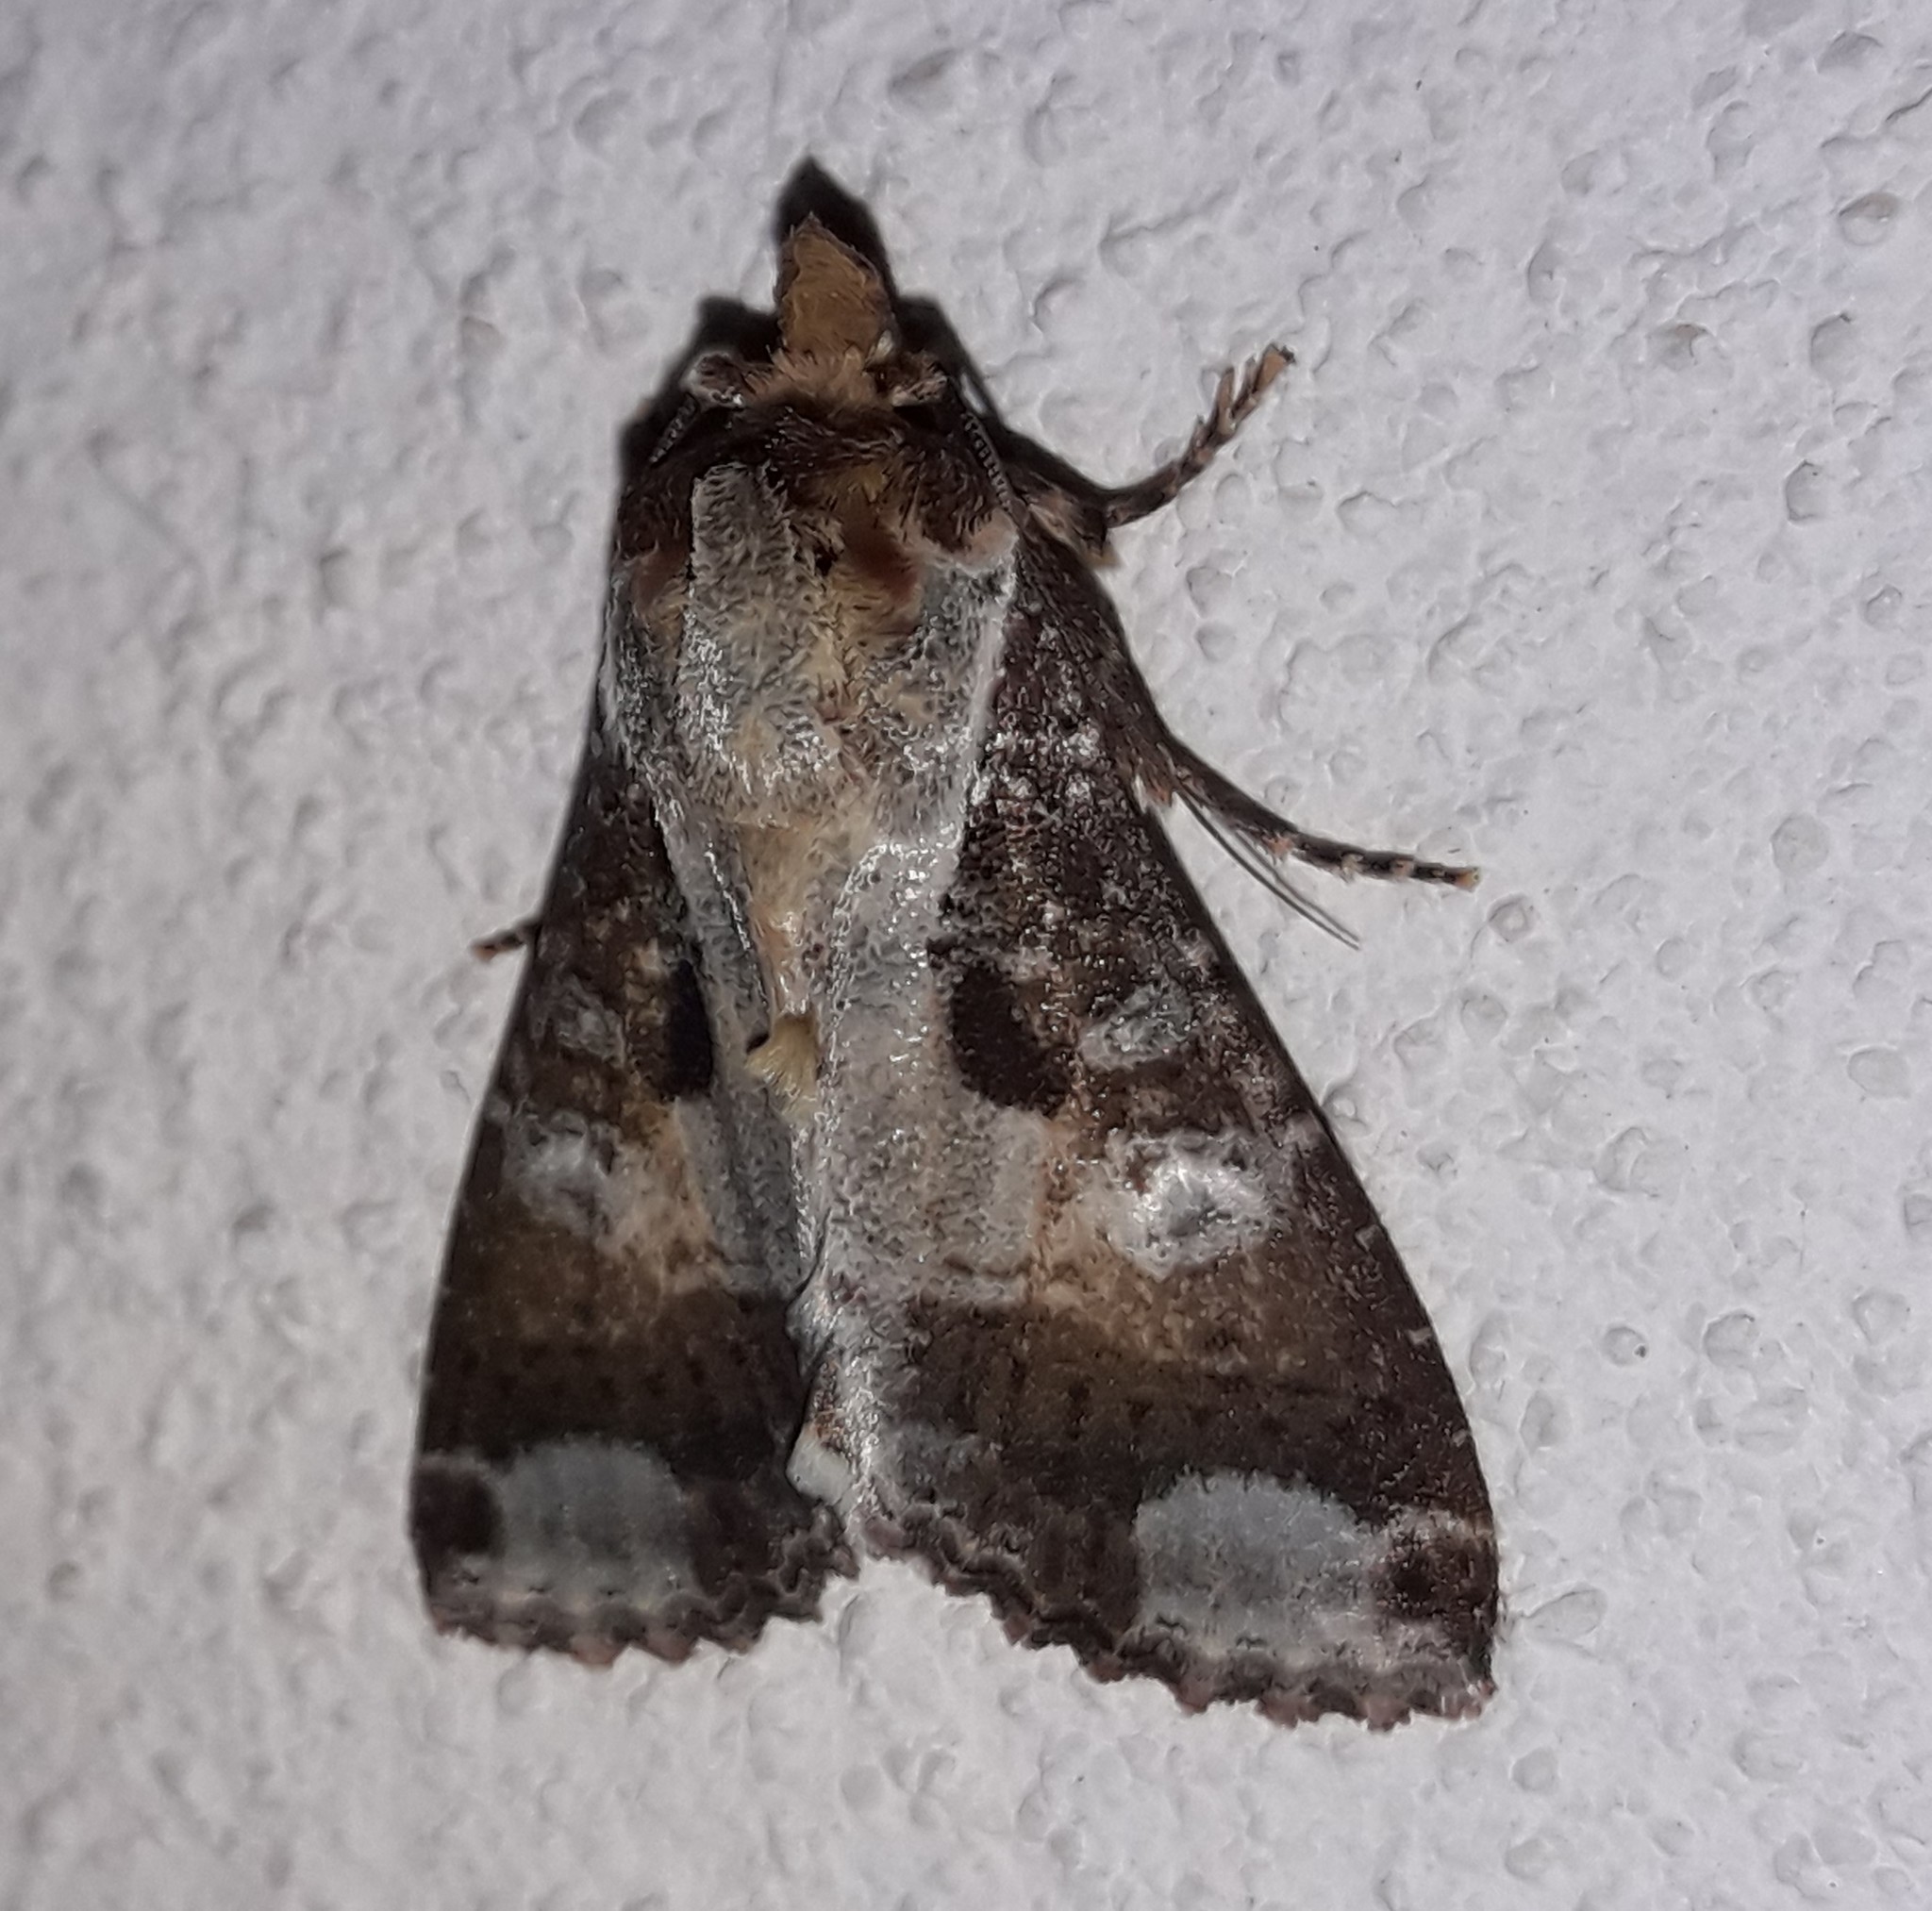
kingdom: Animalia
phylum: Arthropoda
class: Insecta
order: Lepidoptera
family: Noctuidae
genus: Condica
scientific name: Condica imitata
